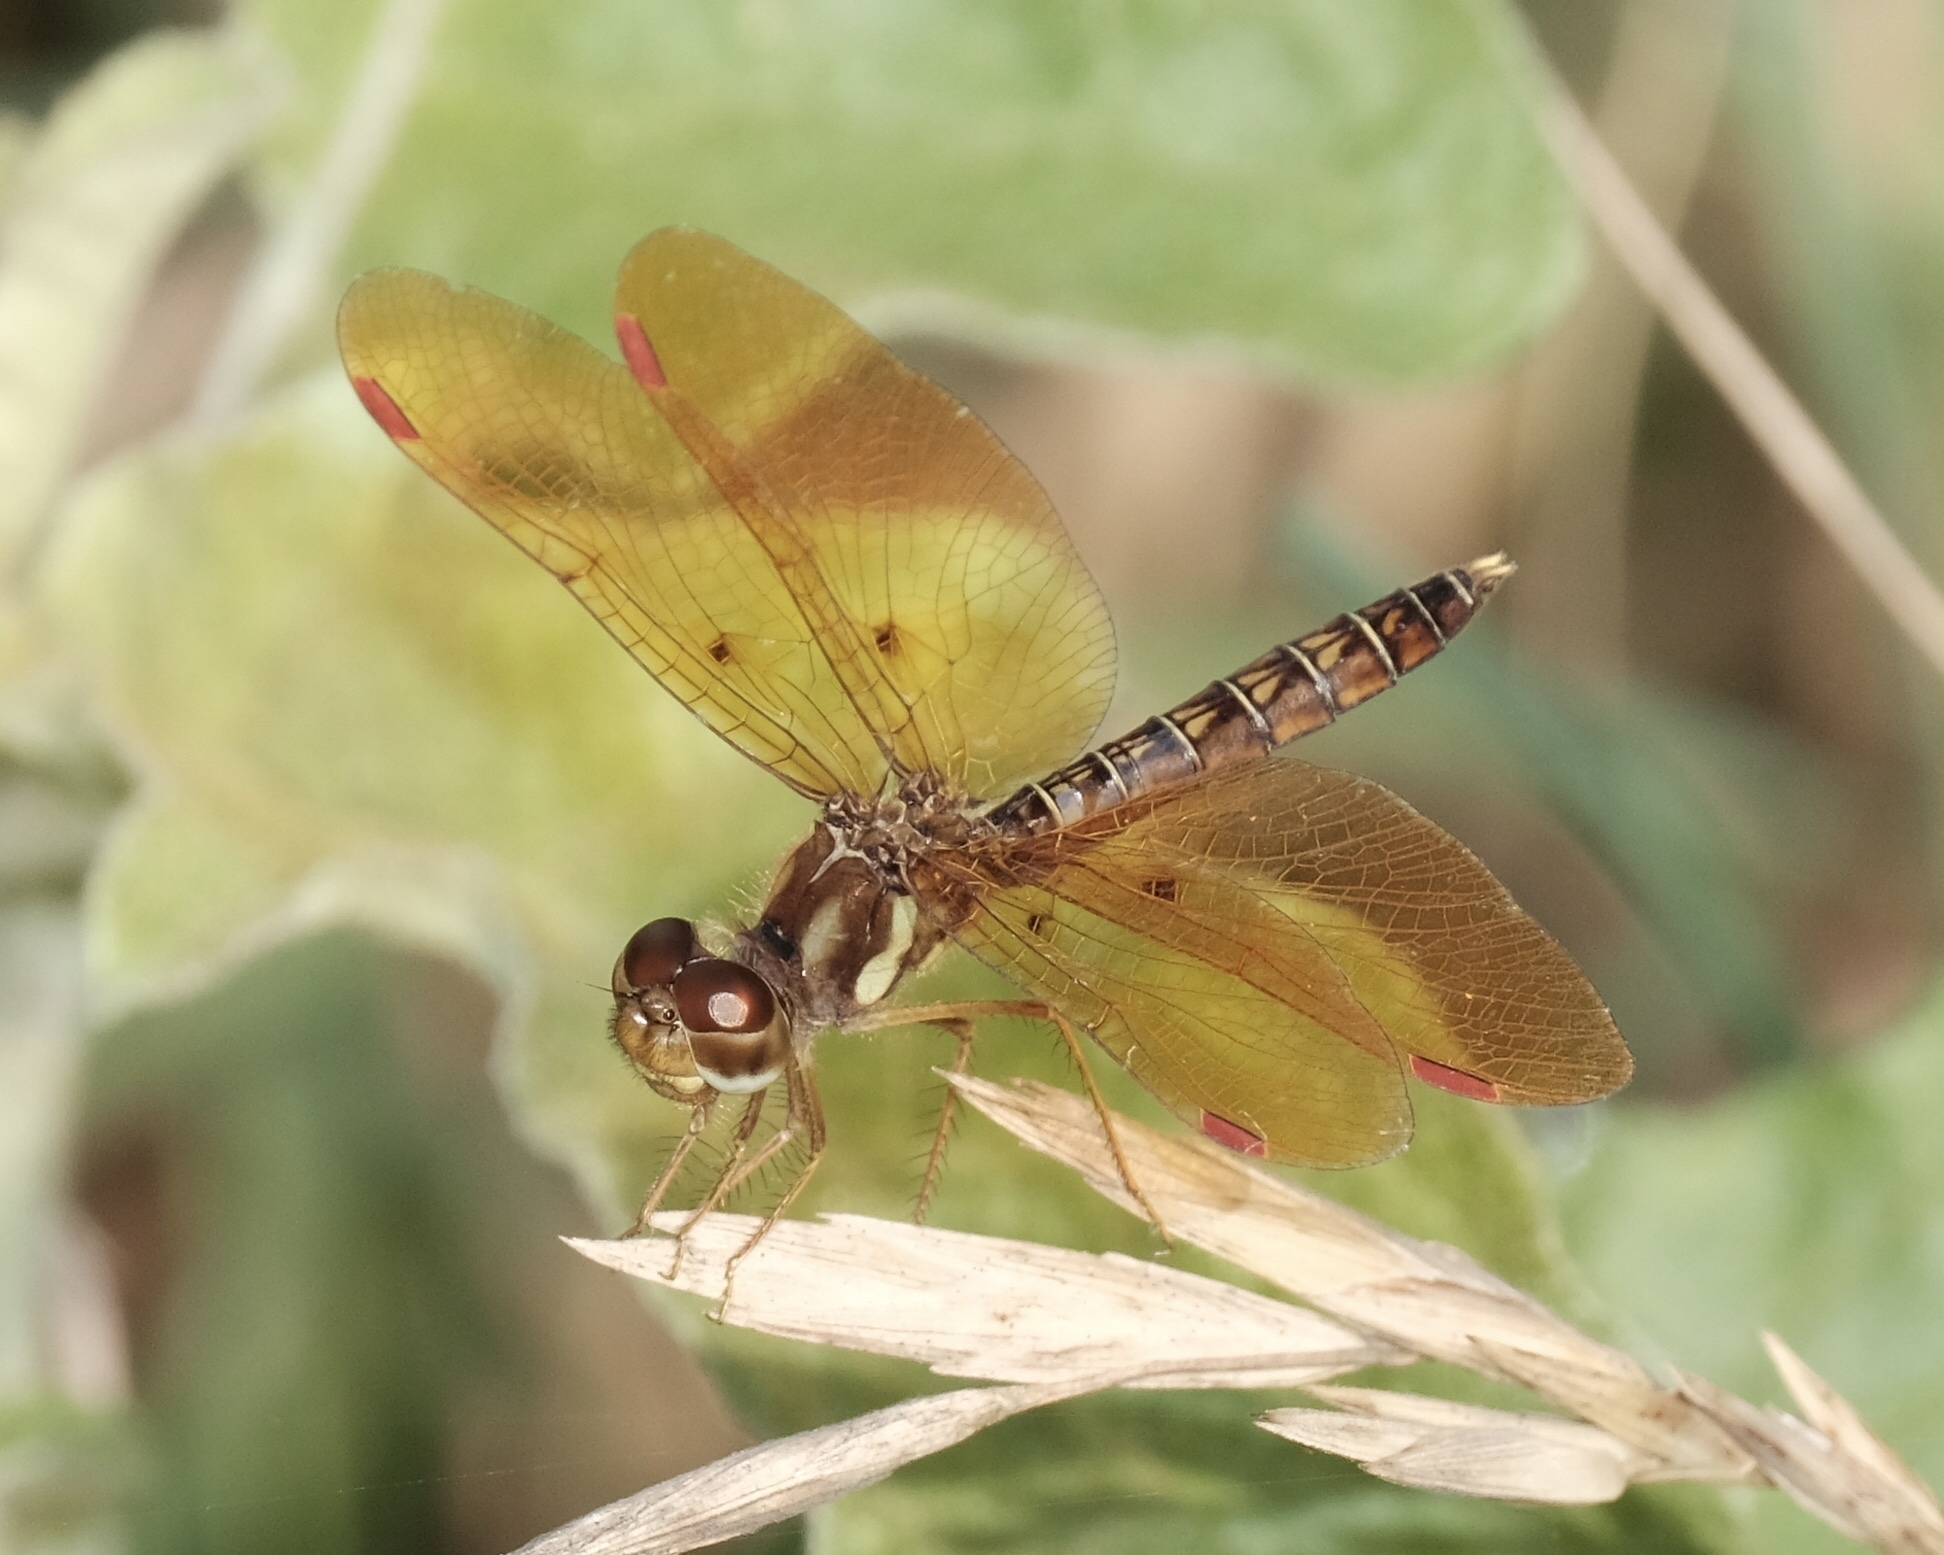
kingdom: Animalia
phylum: Arthropoda
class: Insecta
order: Odonata
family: Libellulidae
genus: Perithemis
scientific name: Perithemis tenera
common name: Eastern amberwing
